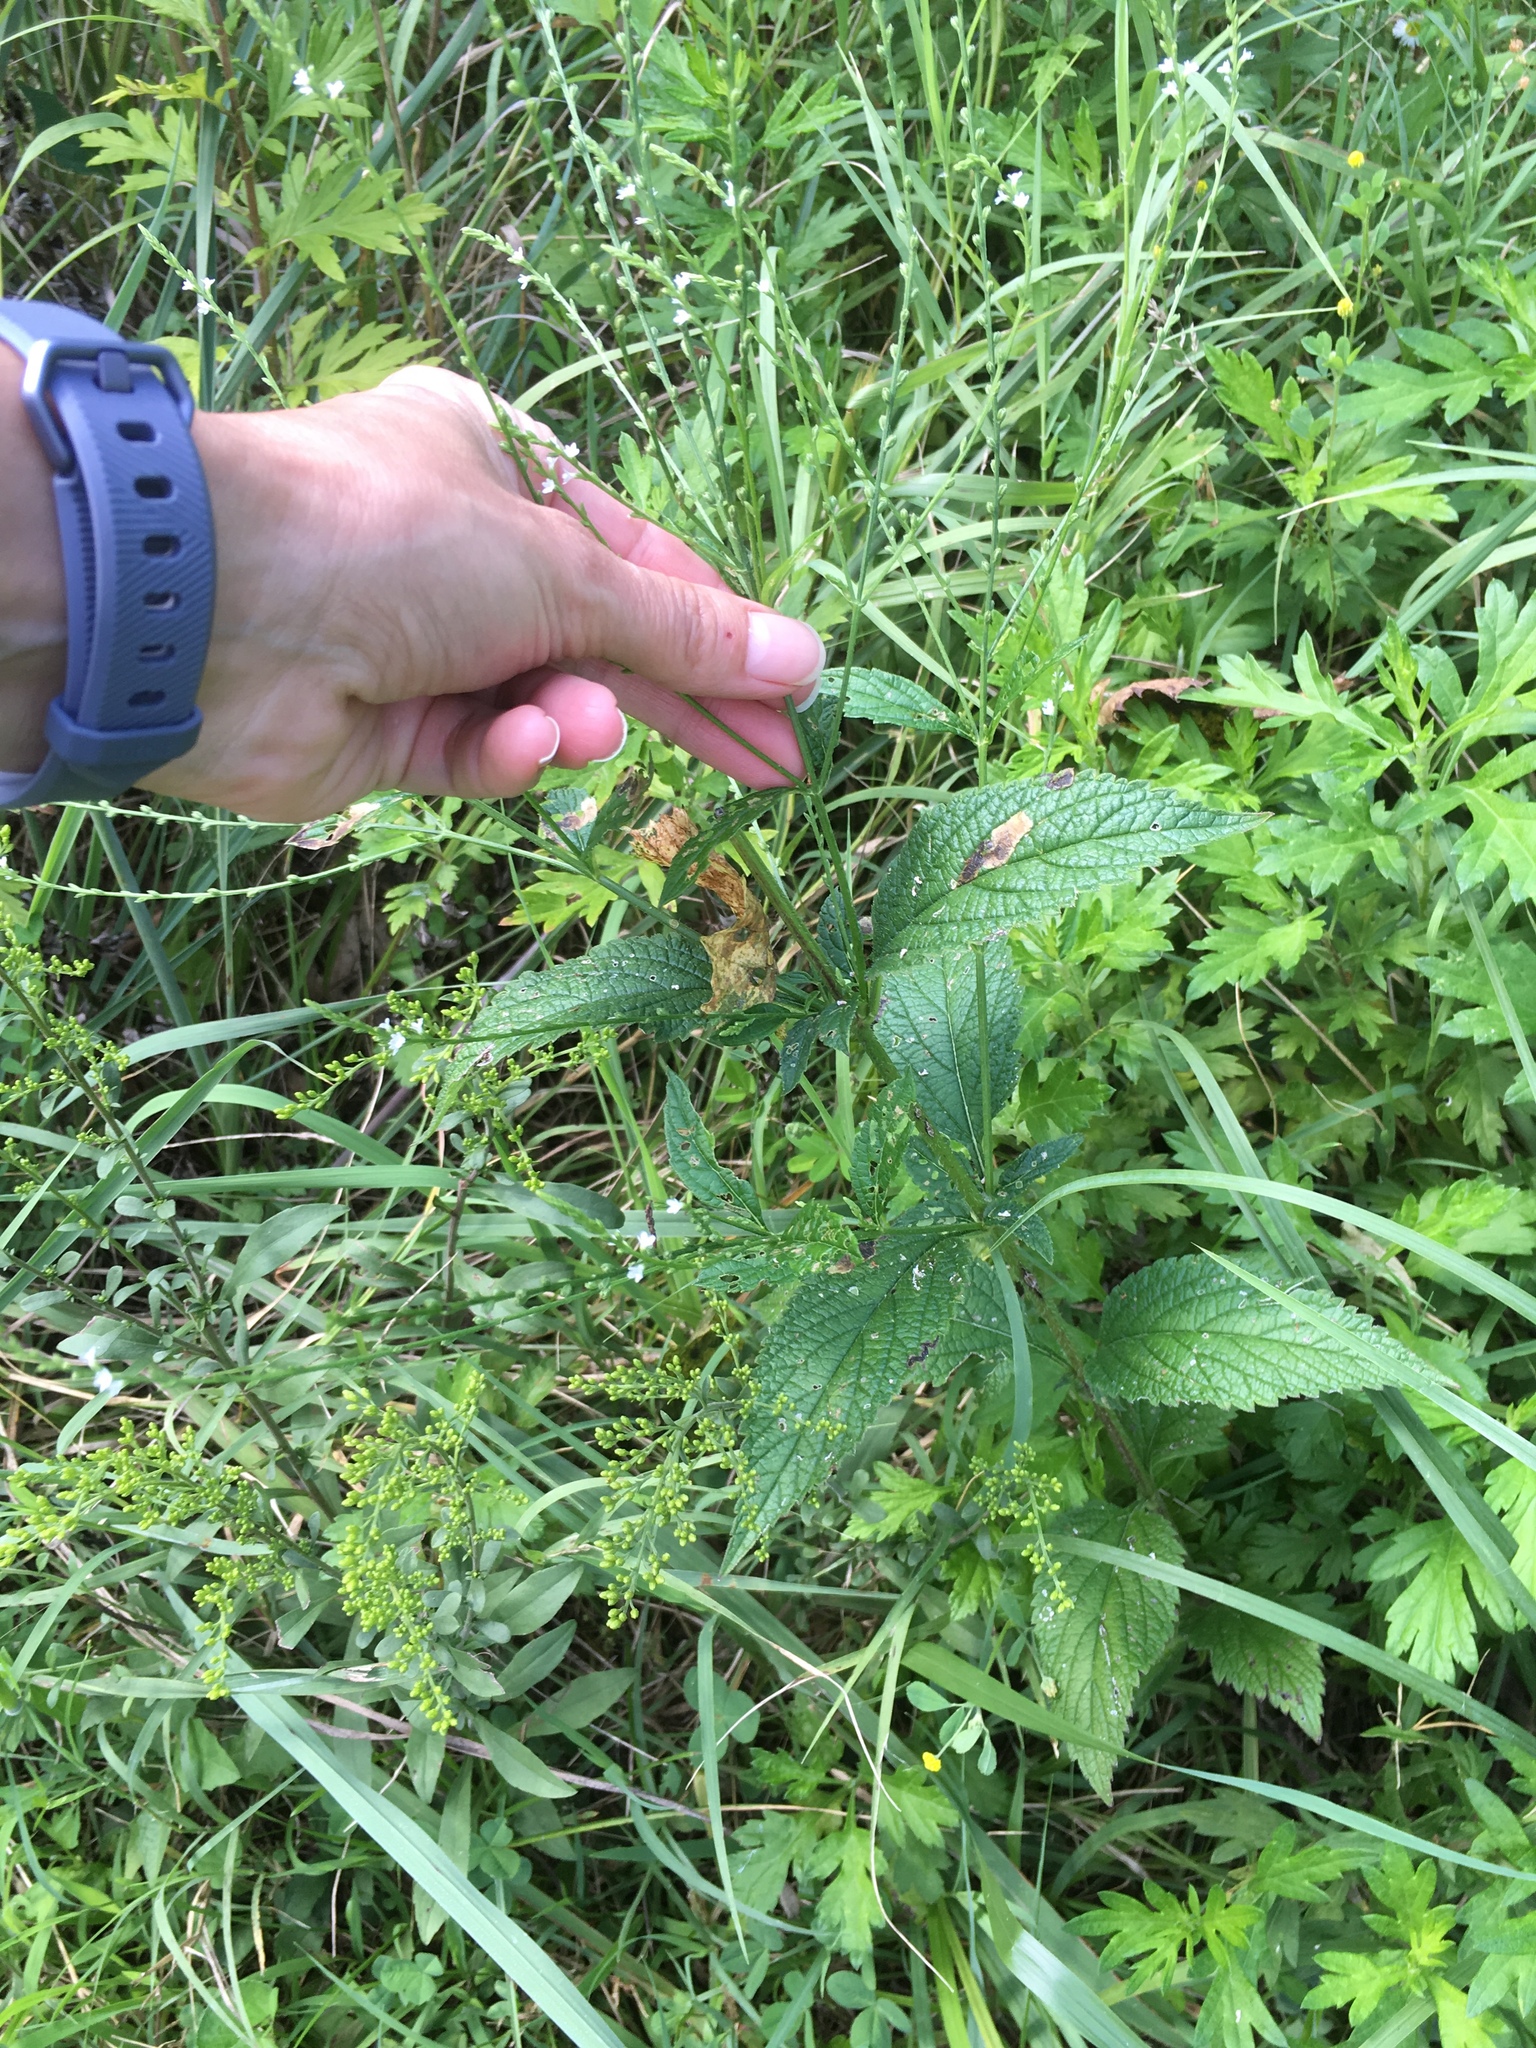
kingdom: Plantae
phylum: Tracheophyta
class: Magnoliopsida
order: Lamiales
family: Verbenaceae
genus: Verbena
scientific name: Verbena urticifolia
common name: Nettle-leaved vervain
